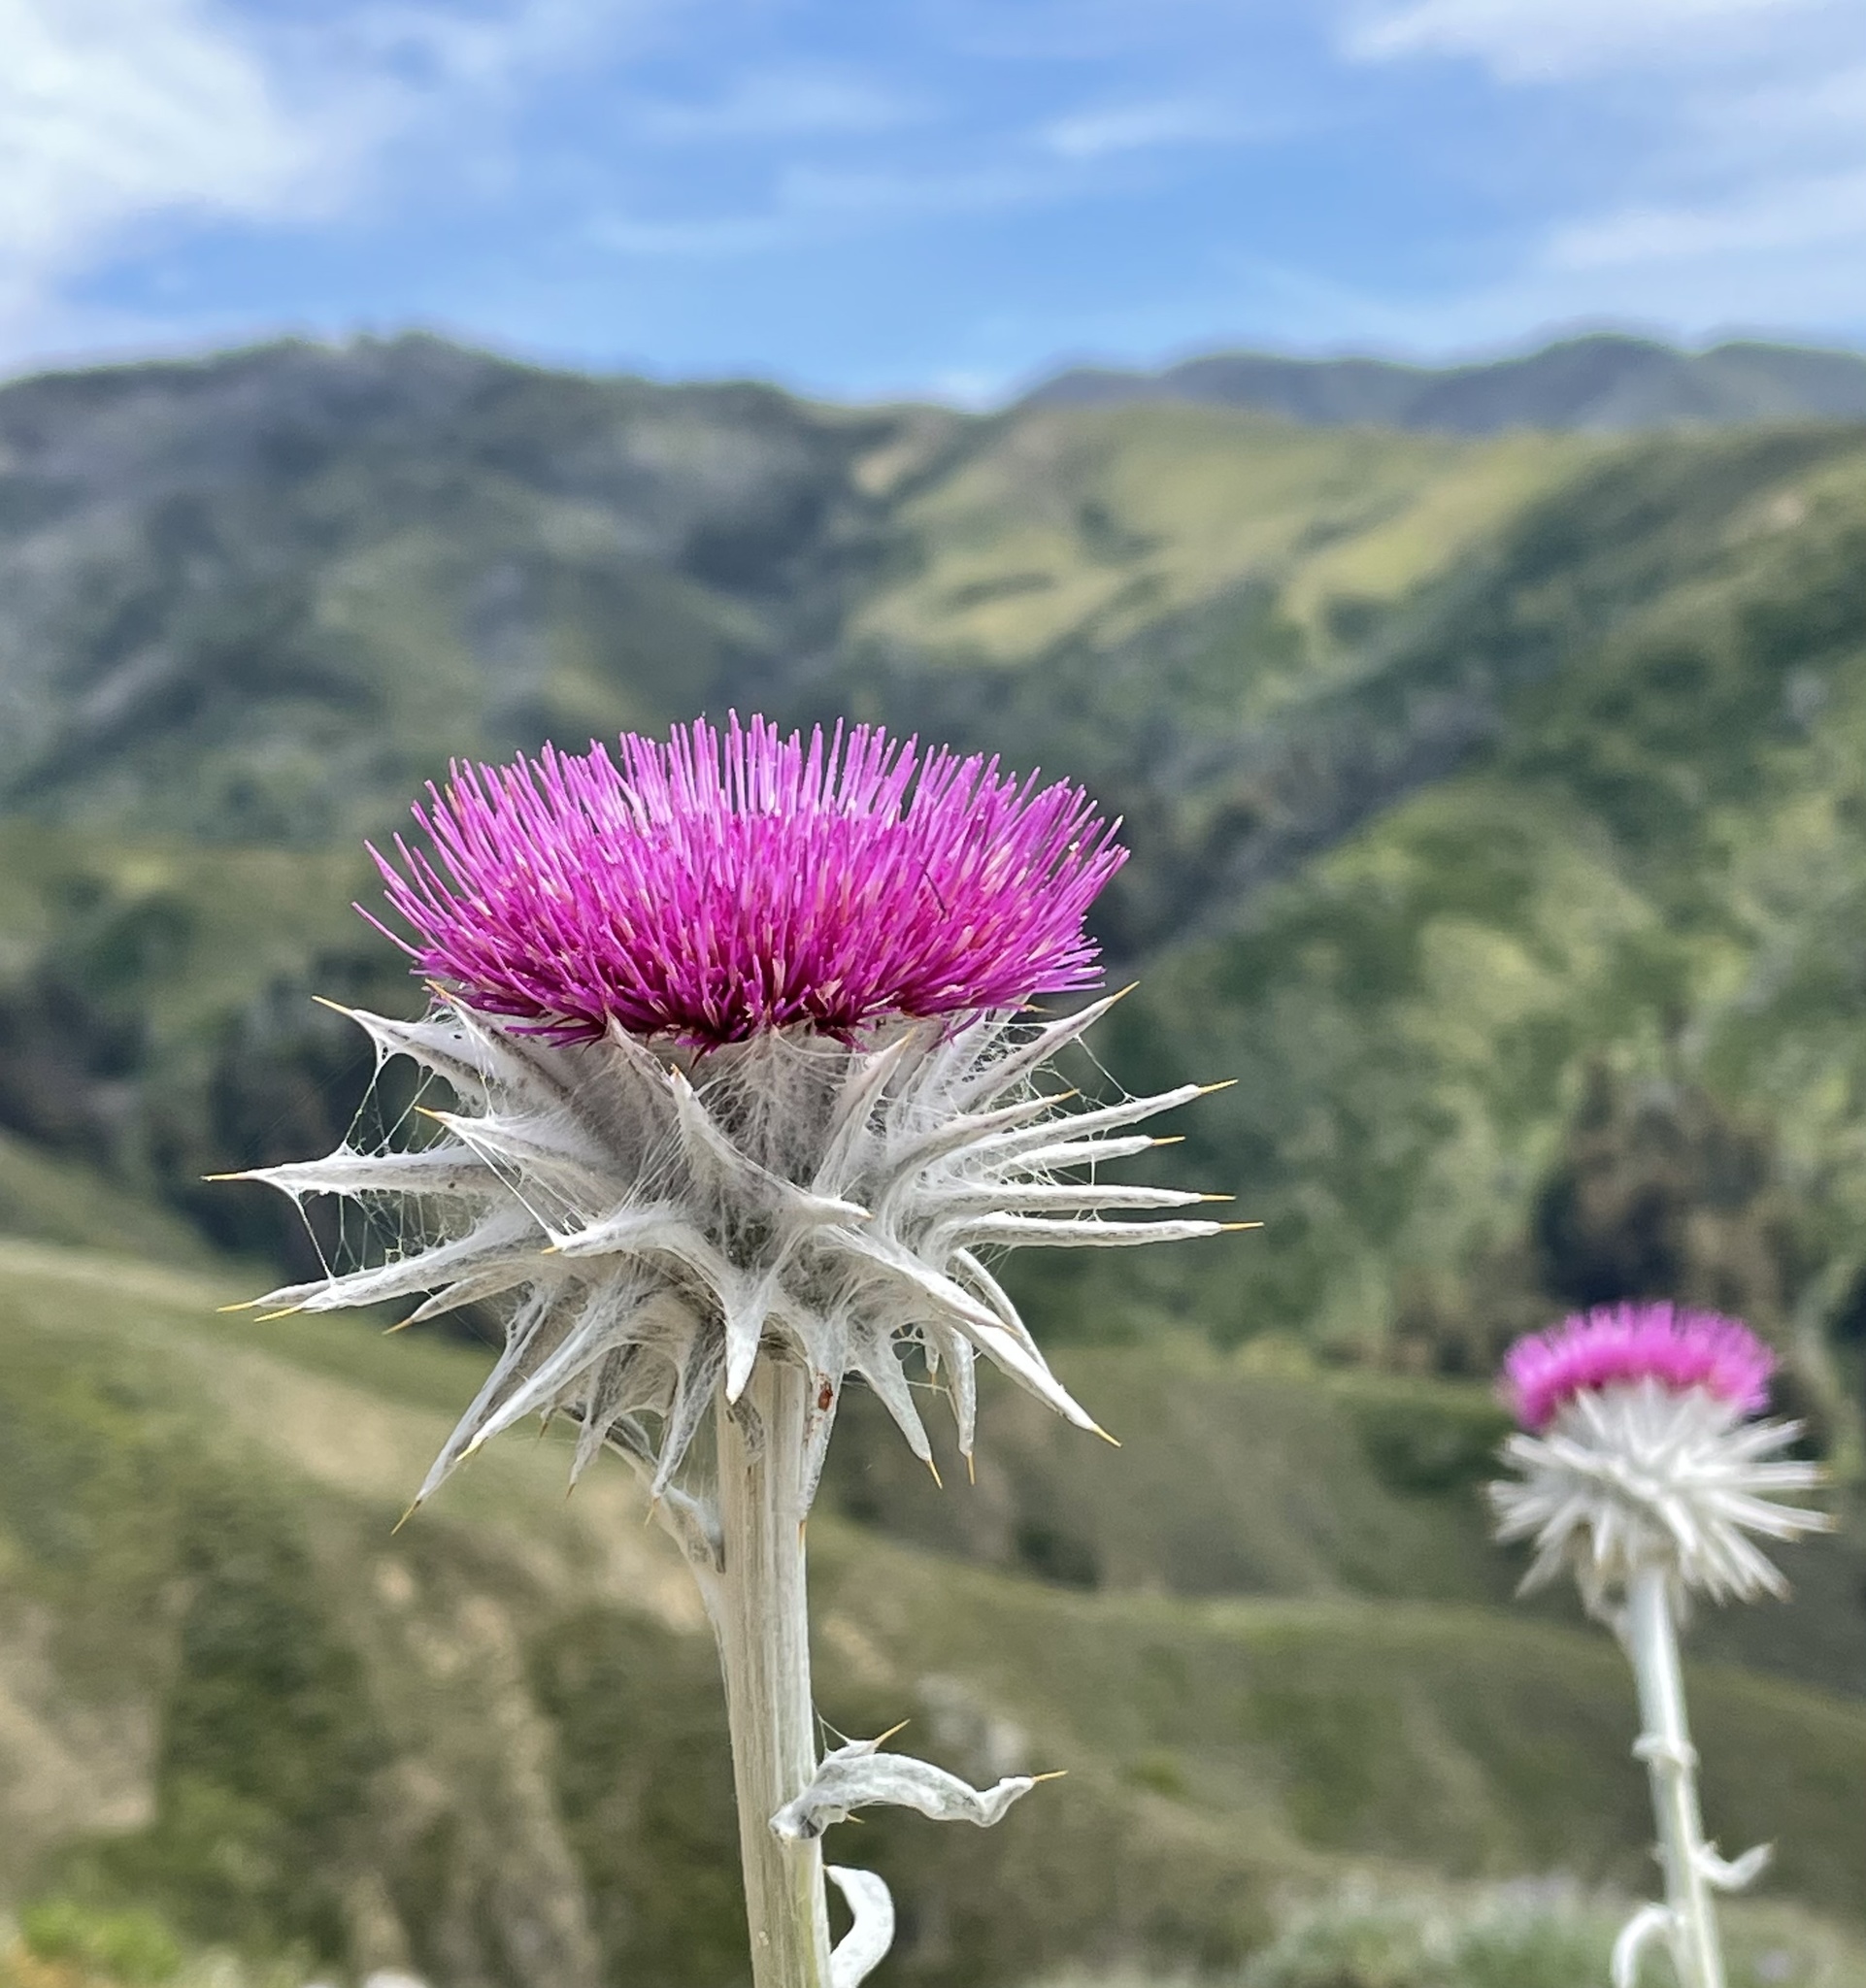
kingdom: Plantae
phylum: Tracheophyta
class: Magnoliopsida
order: Asterales
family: Asteraceae
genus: Cirsium
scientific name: Cirsium occidentale
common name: Western thistle
